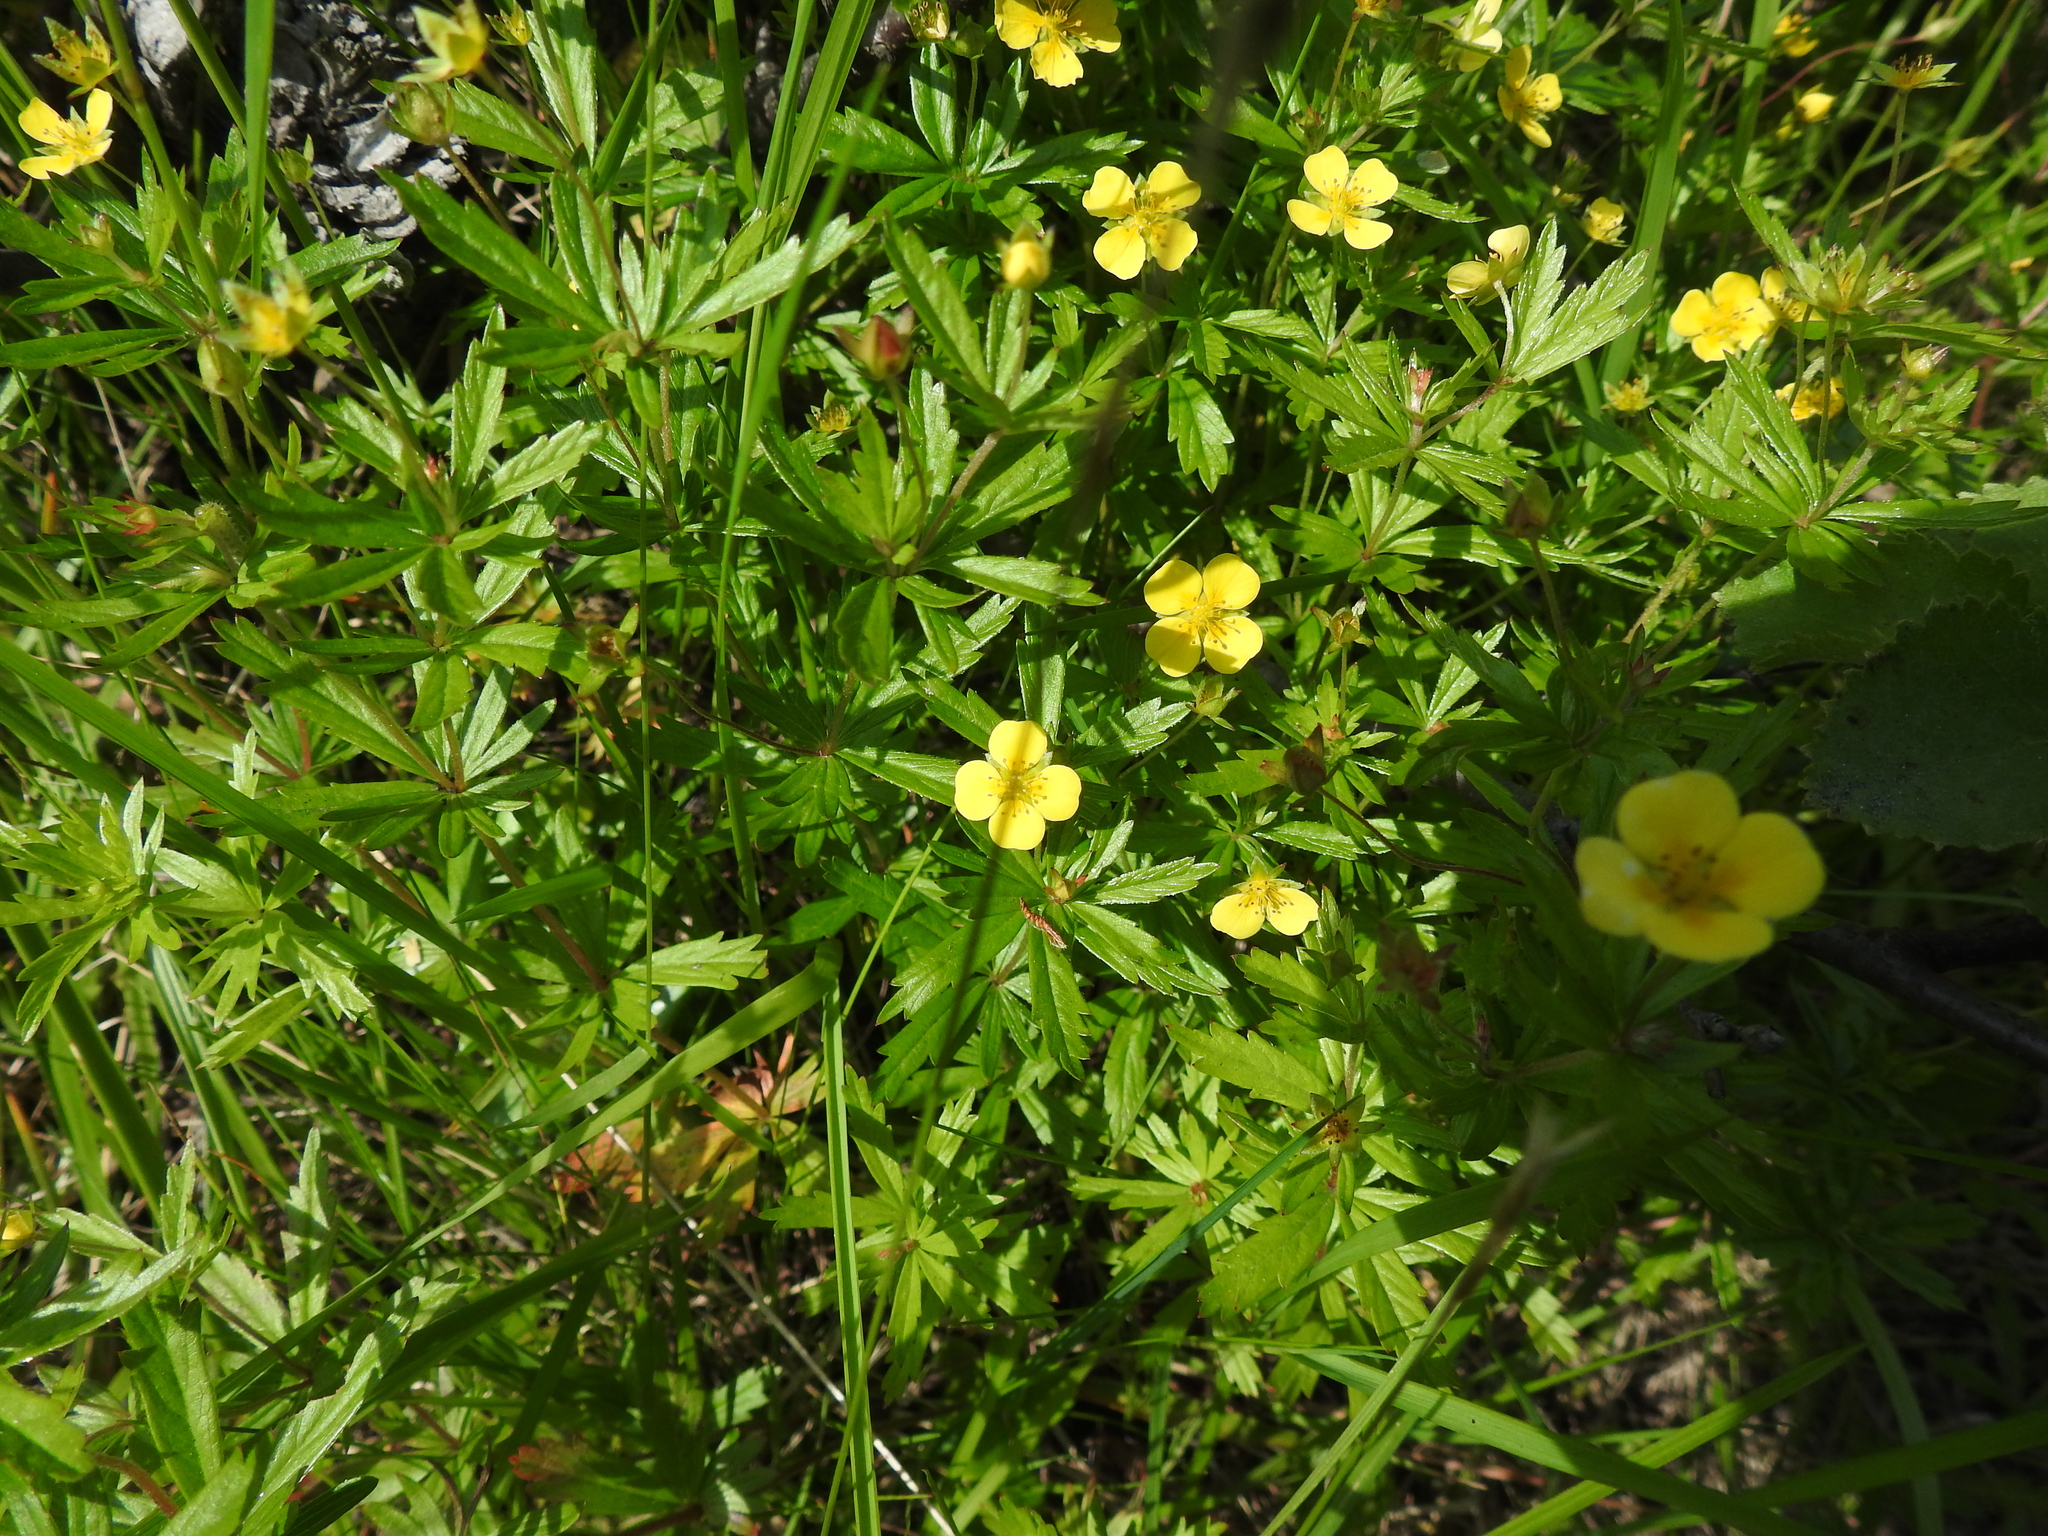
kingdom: Plantae
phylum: Tracheophyta
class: Magnoliopsida
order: Rosales
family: Rosaceae
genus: Potentilla
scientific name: Potentilla erecta
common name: Tormentil
